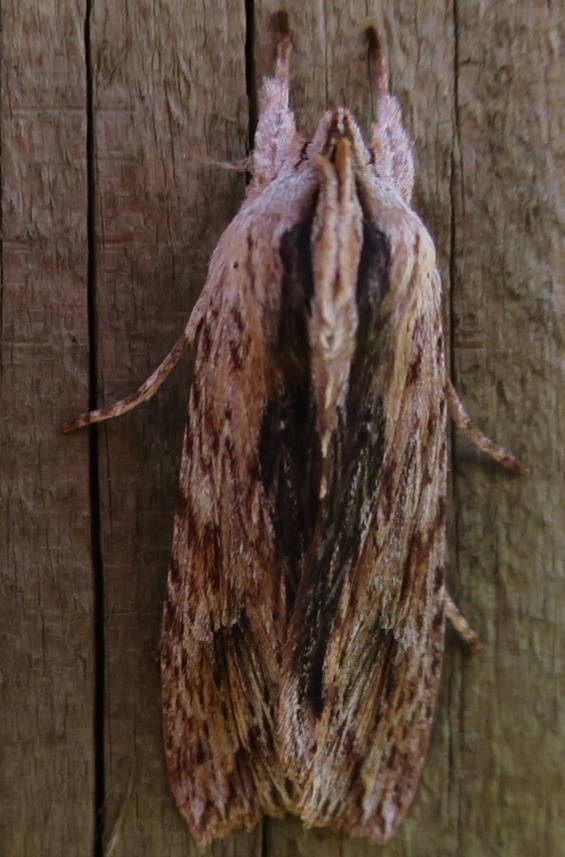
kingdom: Animalia
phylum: Arthropoda
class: Insecta
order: Lepidoptera
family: Noctuidae
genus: Physetica
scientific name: Physetica prionistis
